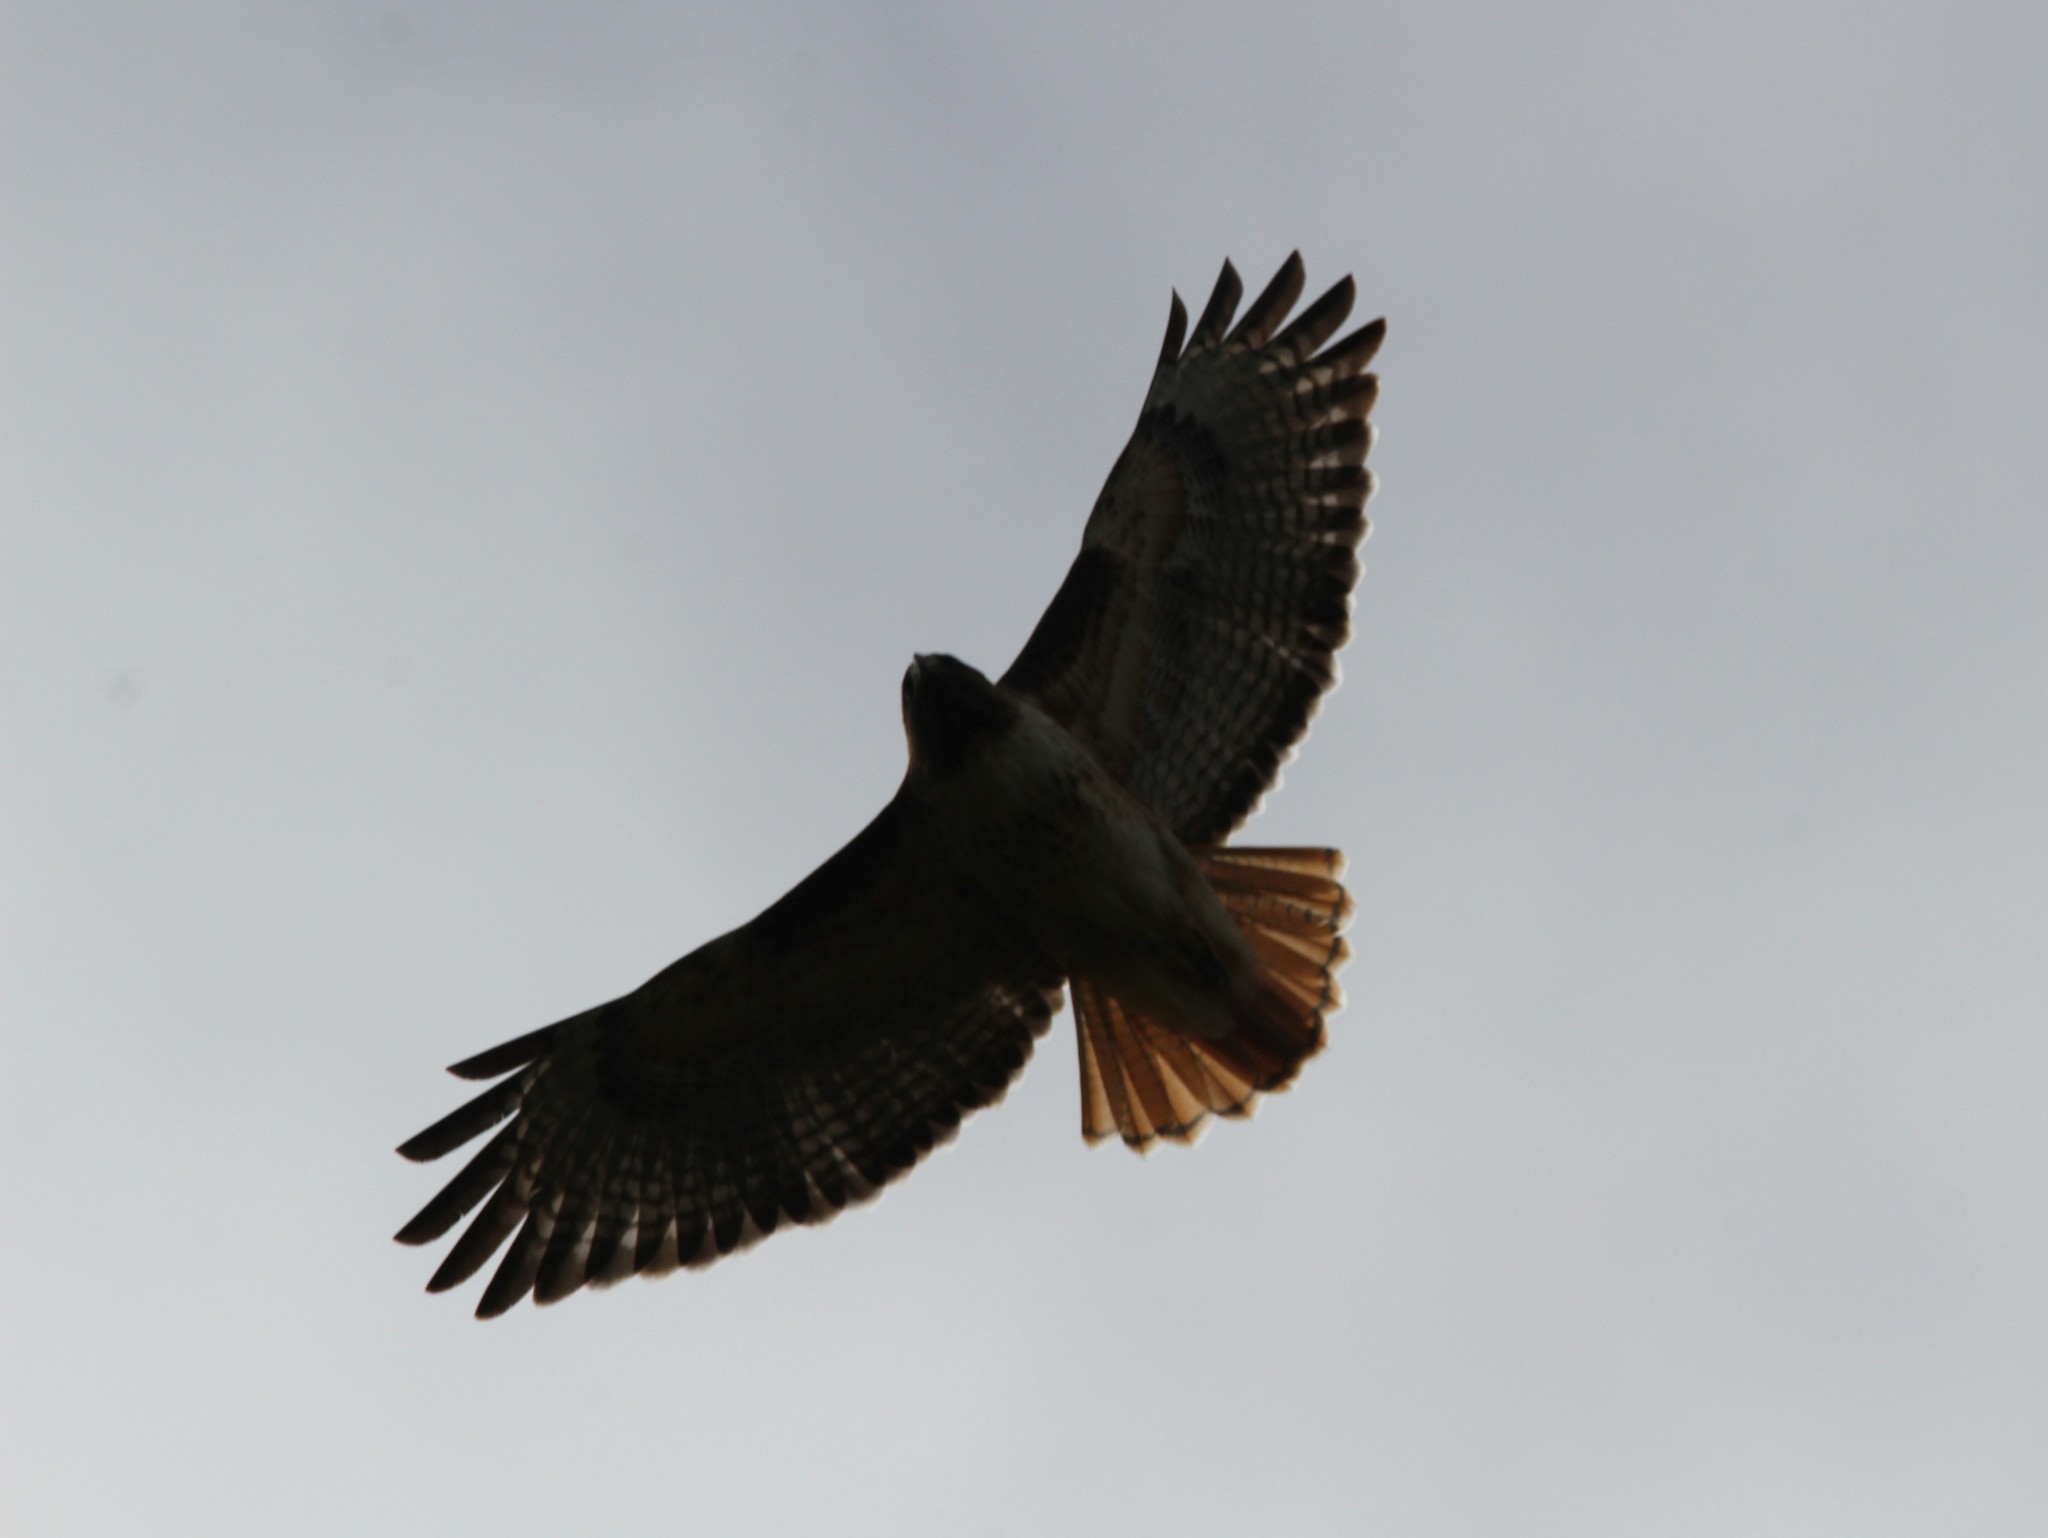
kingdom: Animalia
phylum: Chordata
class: Aves
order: Accipitriformes
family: Accipitridae
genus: Buteo
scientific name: Buteo jamaicensis
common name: Red-tailed hawk
